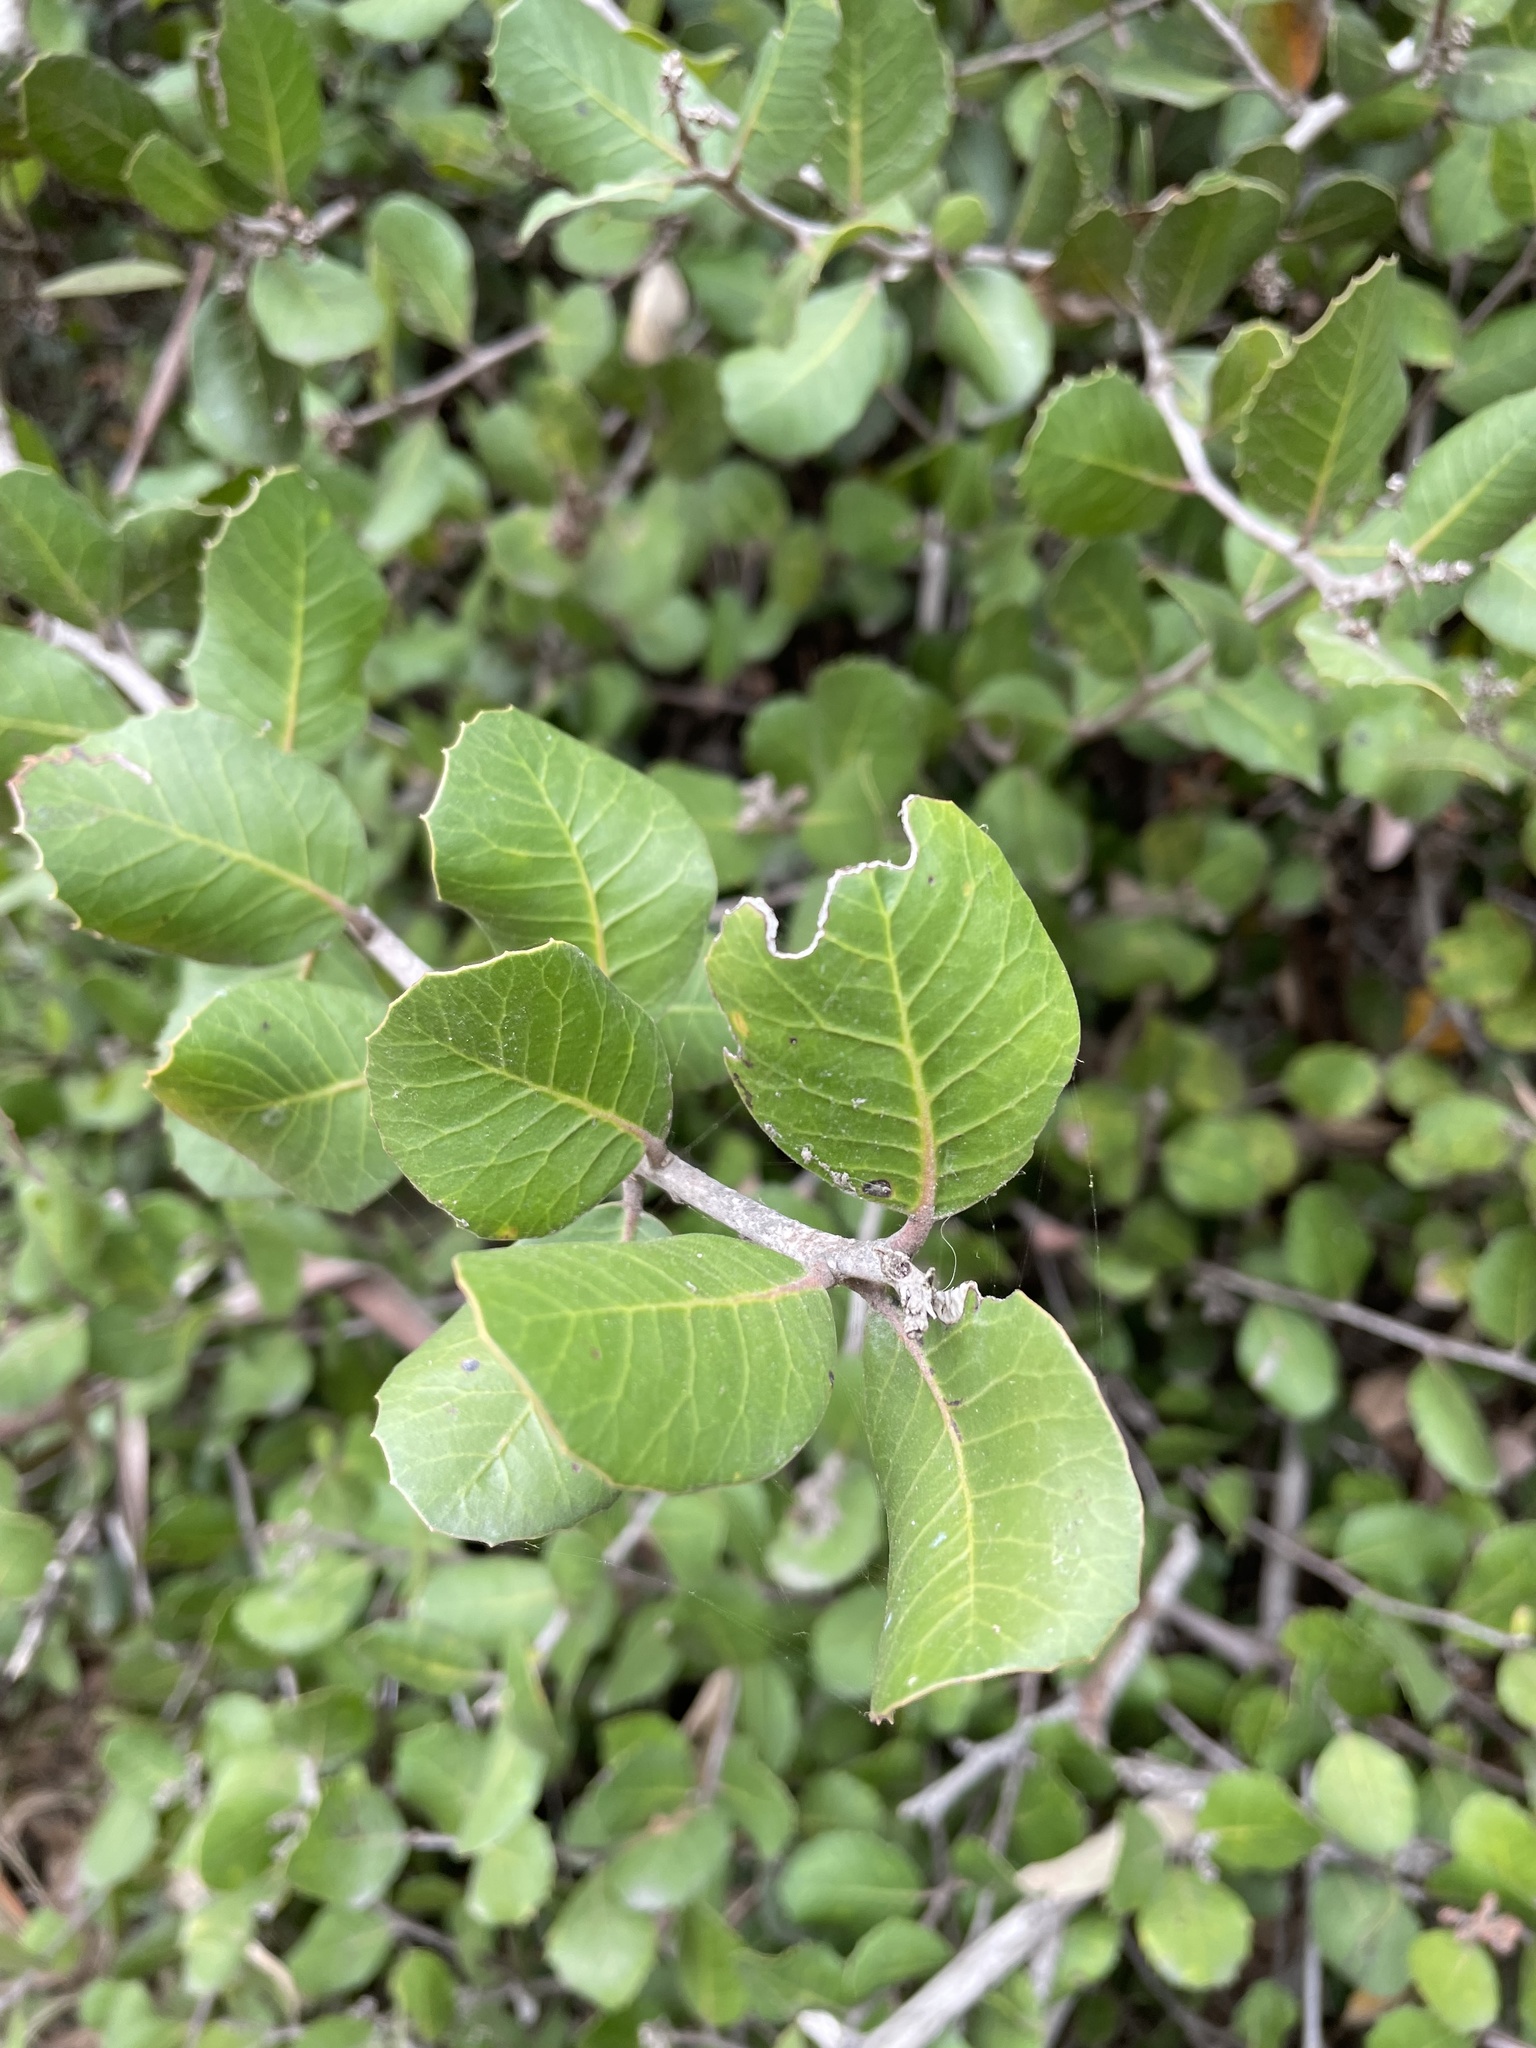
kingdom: Plantae
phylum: Tracheophyta
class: Magnoliopsida
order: Sapindales
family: Anacardiaceae
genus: Rhus
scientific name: Rhus integrifolia
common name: Lemonade sumac
